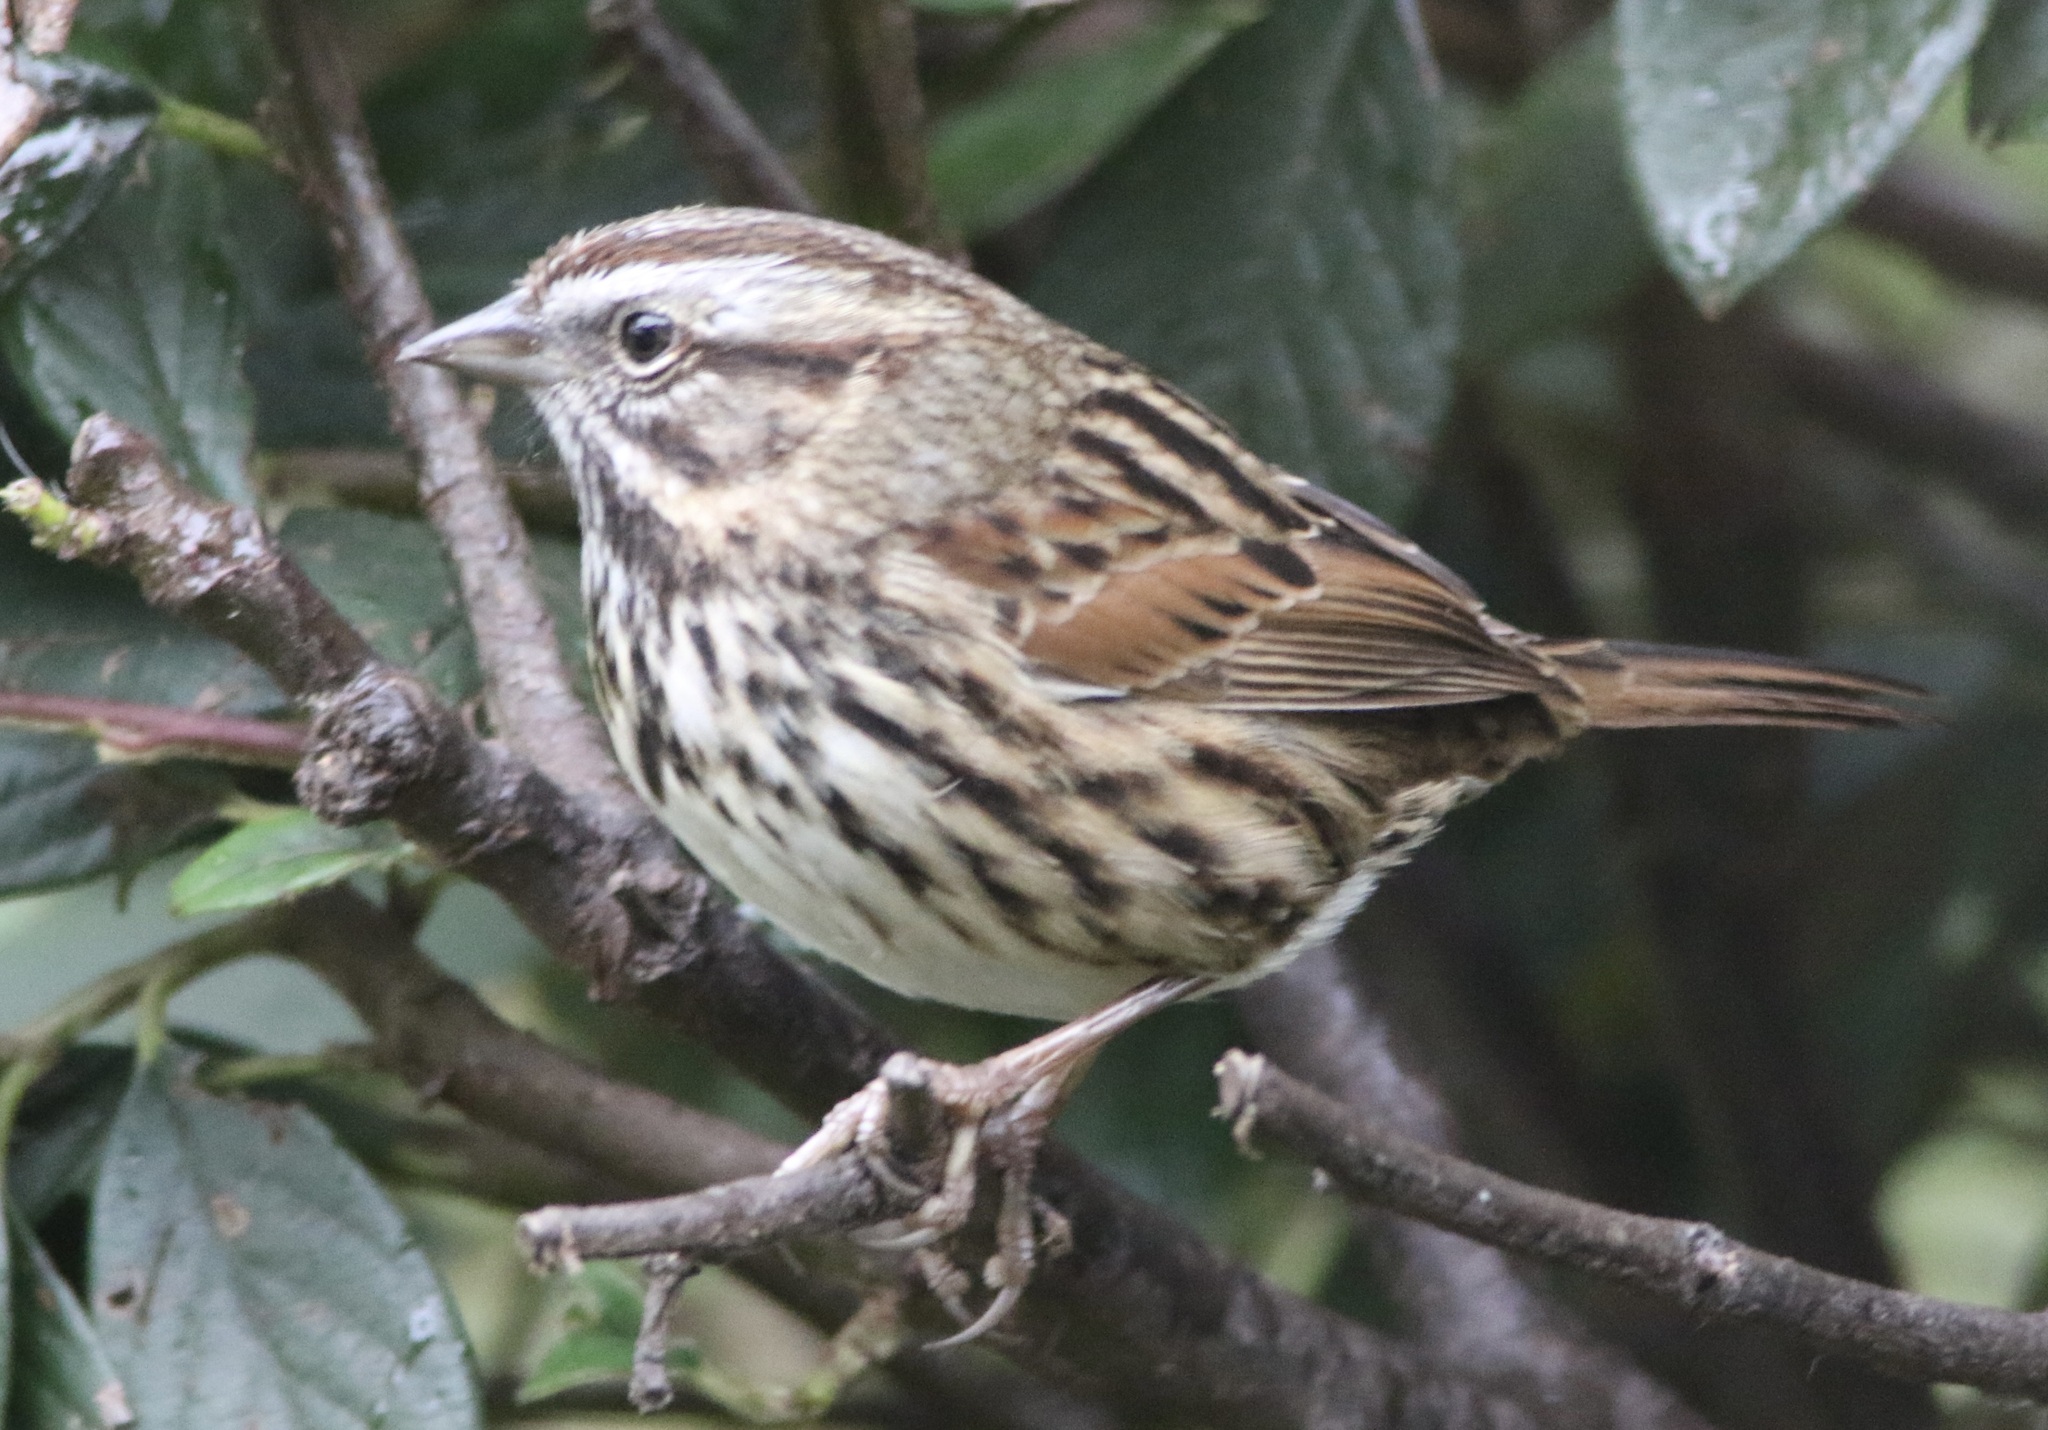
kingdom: Animalia
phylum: Chordata
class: Aves
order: Passeriformes
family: Passerellidae
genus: Melospiza
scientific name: Melospiza melodia
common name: Song sparrow
